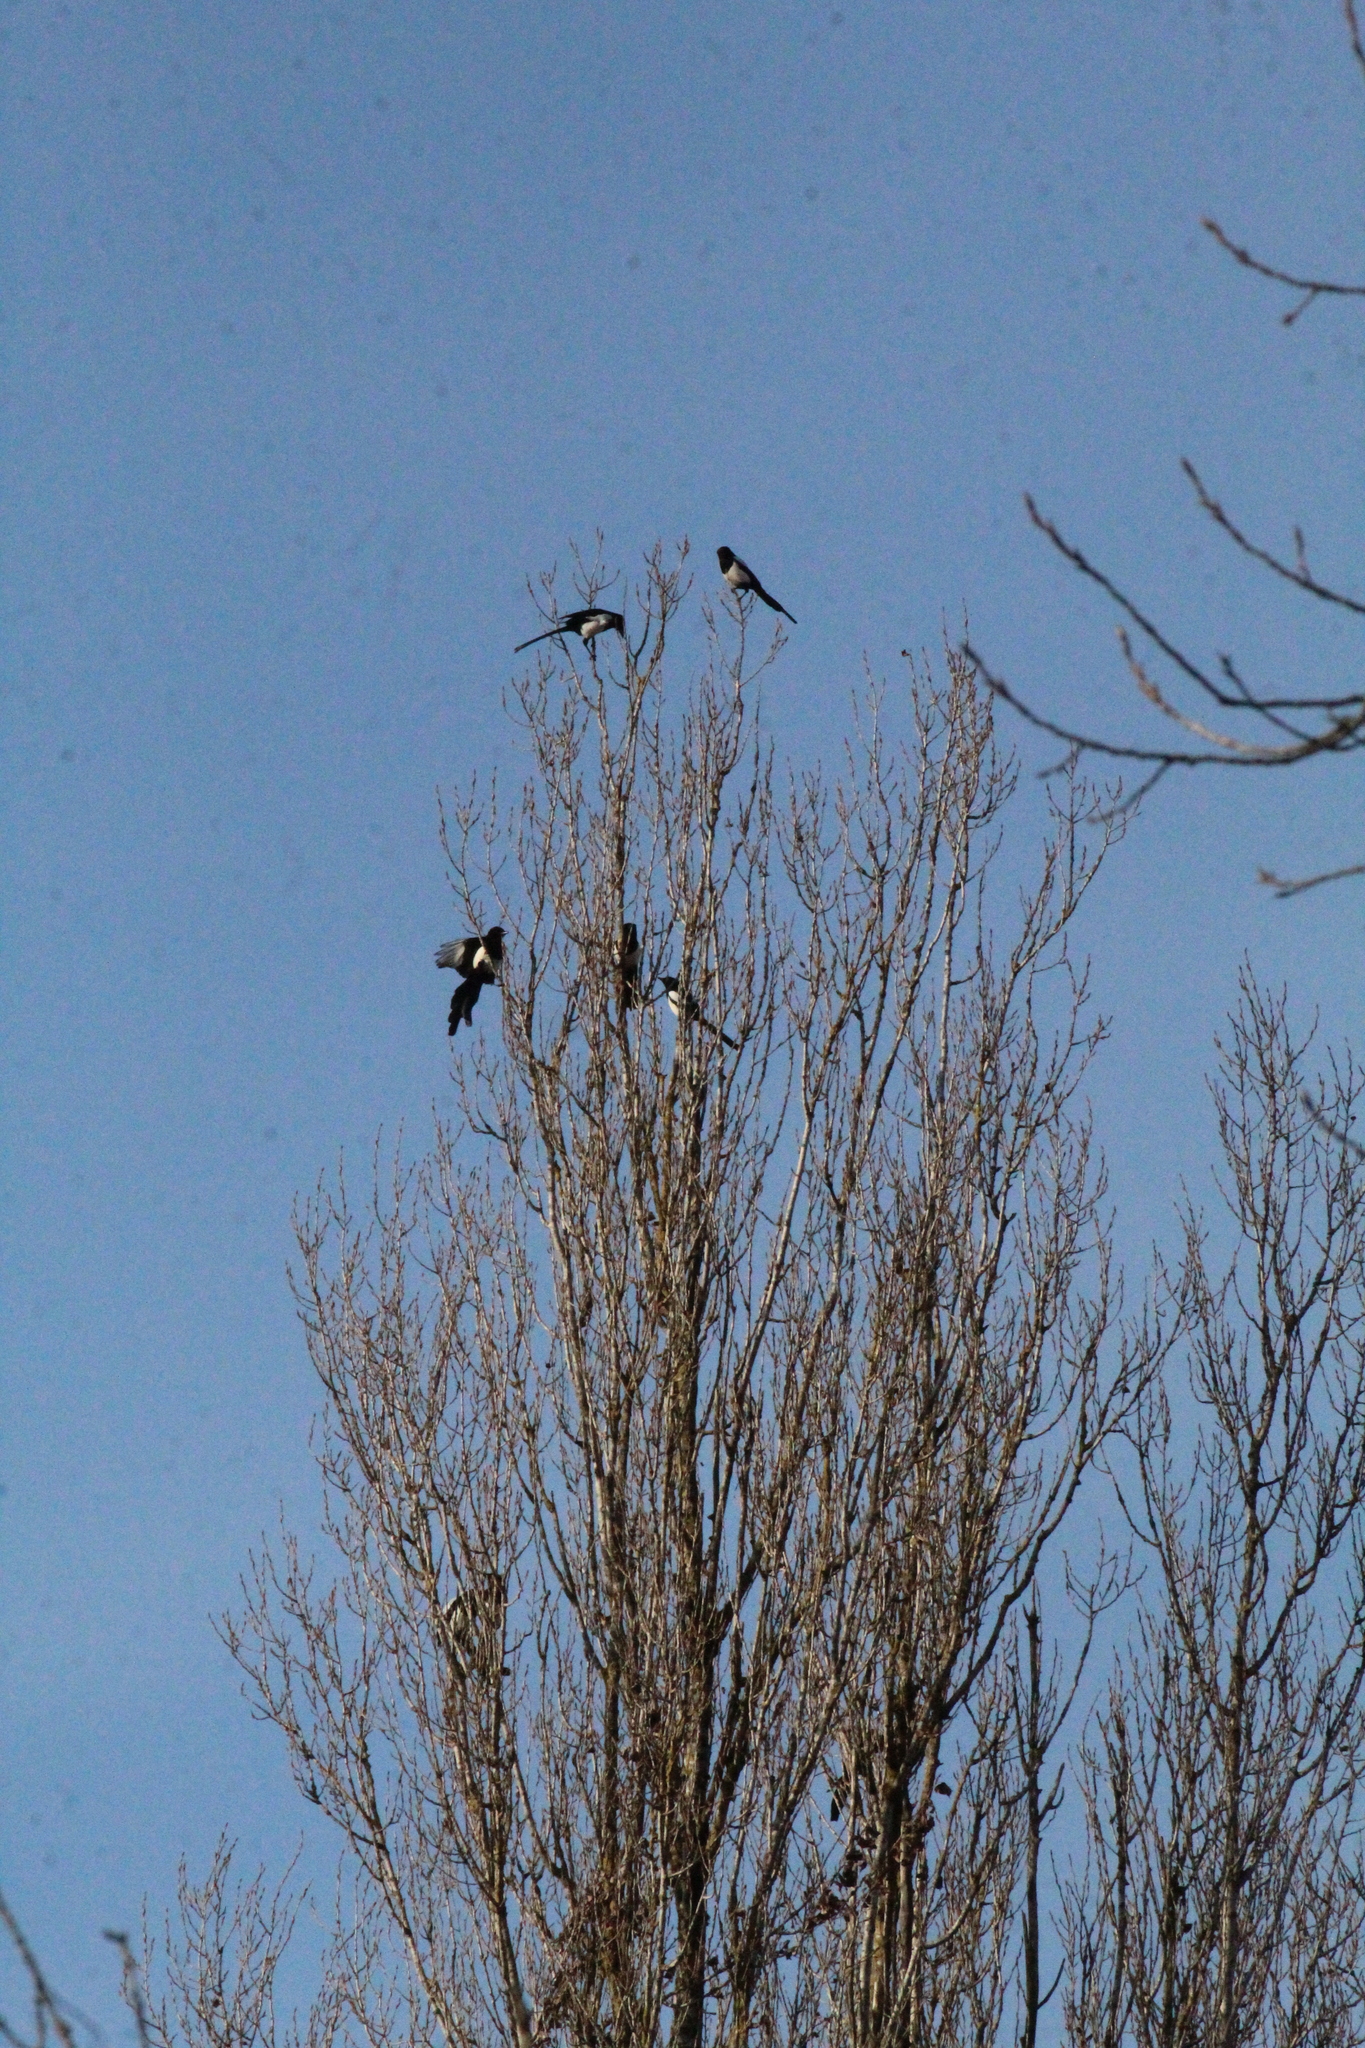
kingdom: Animalia
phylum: Chordata
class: Aves
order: Passeriformes
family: Corvidae
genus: Pica
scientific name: Pica pica
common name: Eurasian magpie
